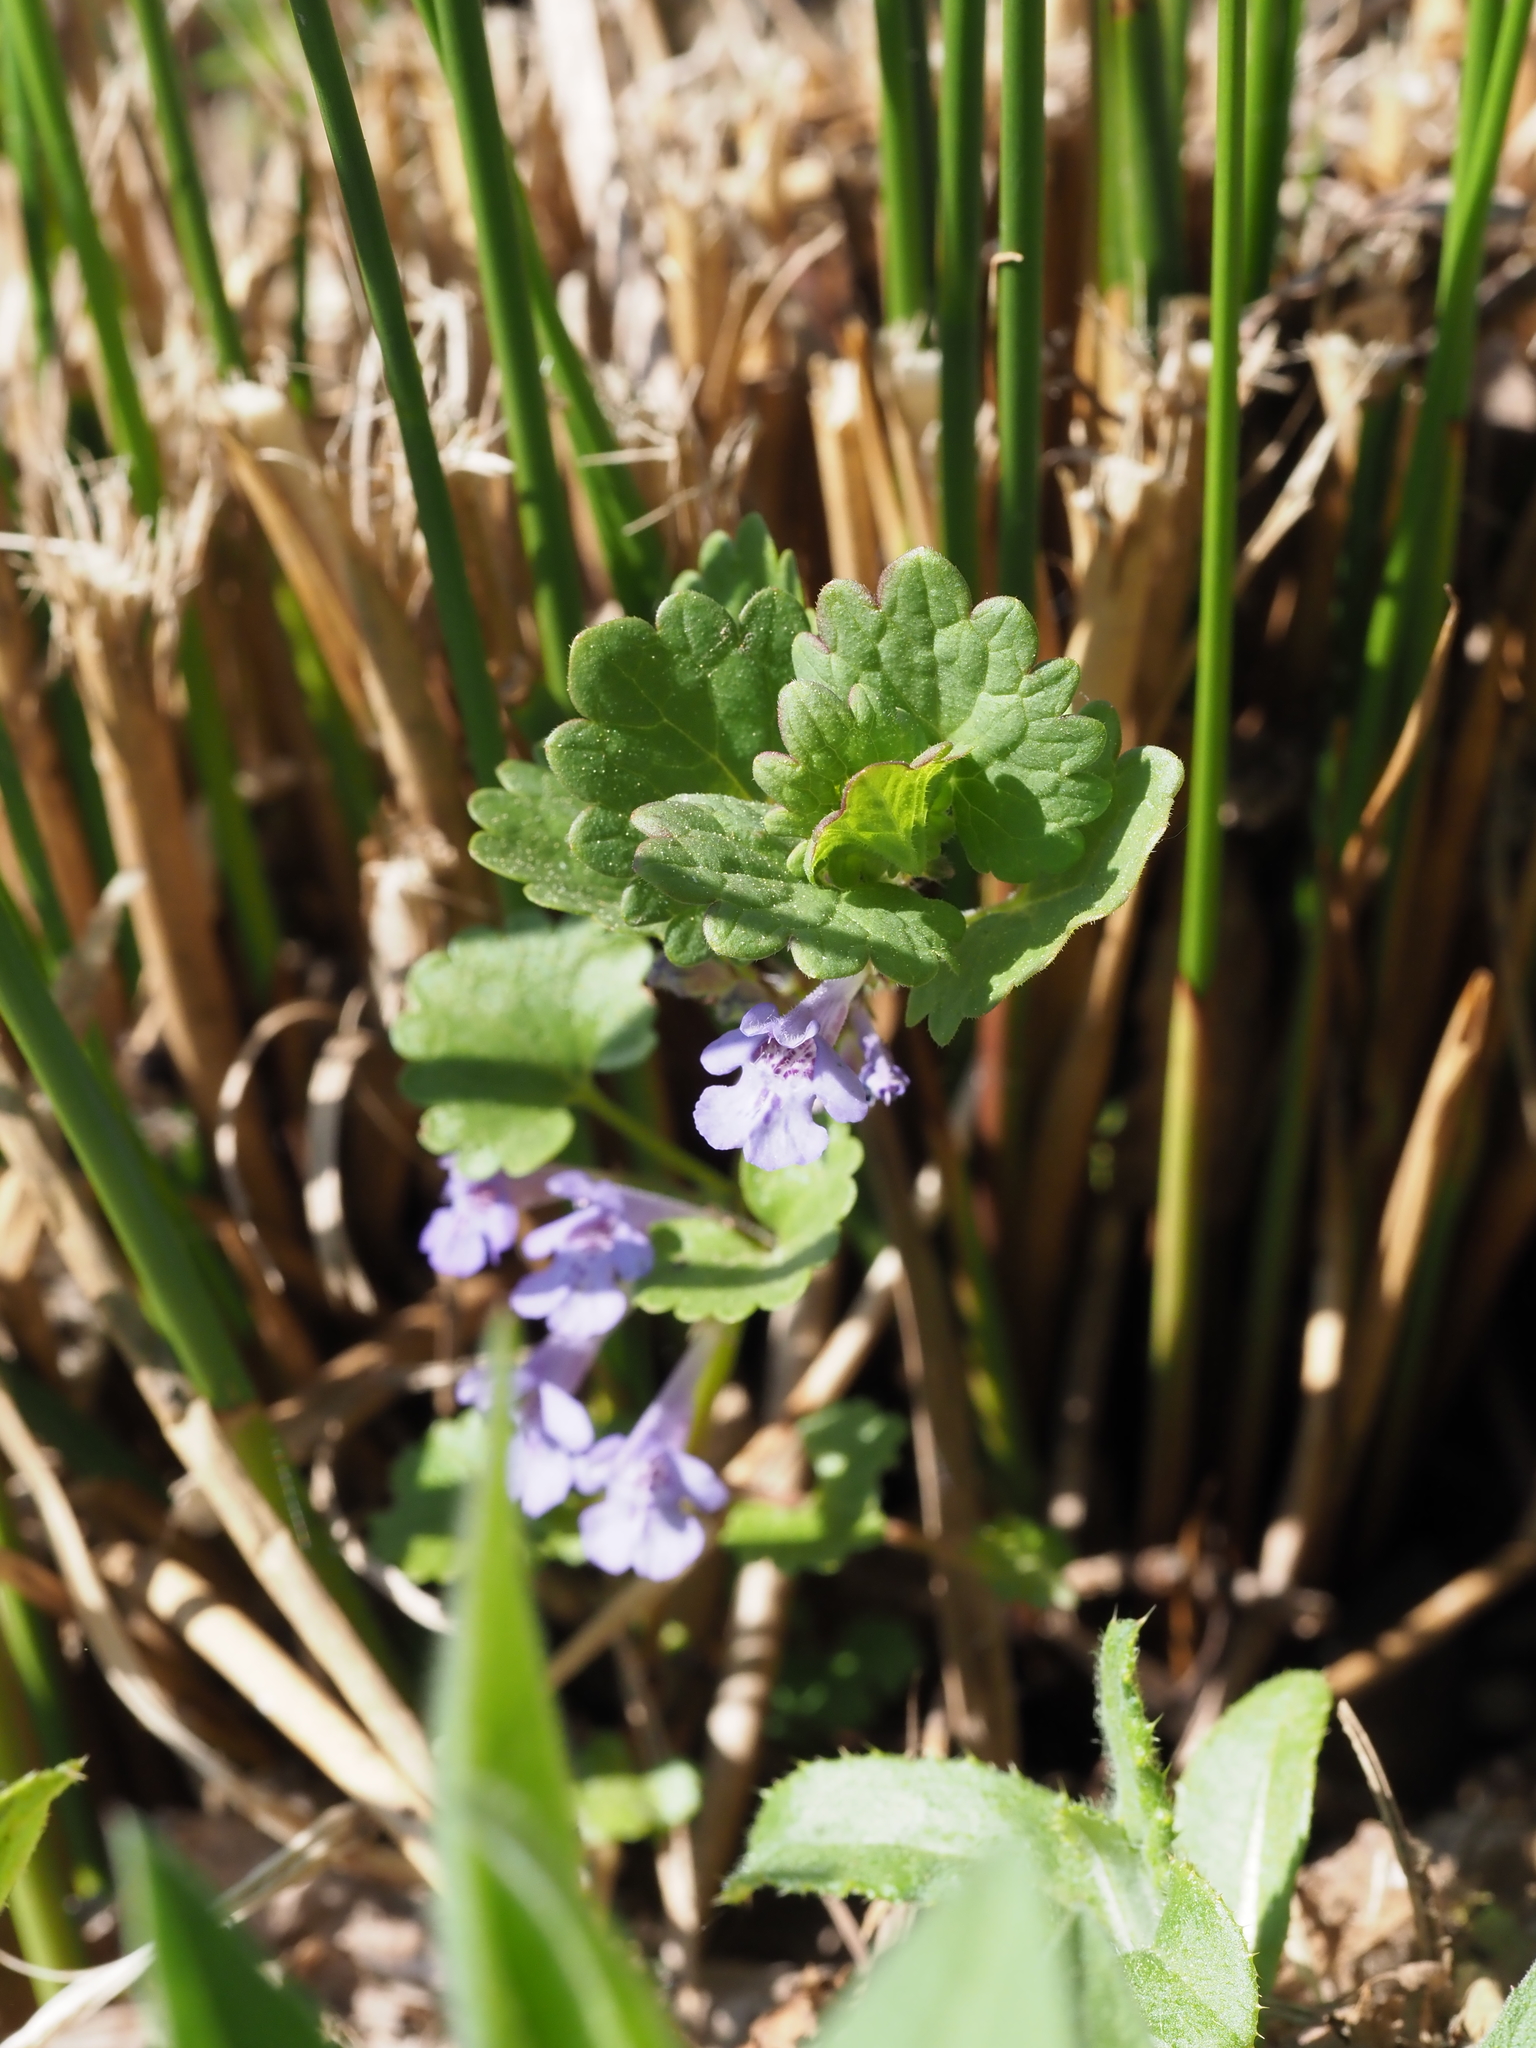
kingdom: Plantae
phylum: Tracheophyta
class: Magnoliopsida
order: Lamiales
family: Lamiaceae
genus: Glechoma
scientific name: Glechoma hederacea
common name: Ground ivy
